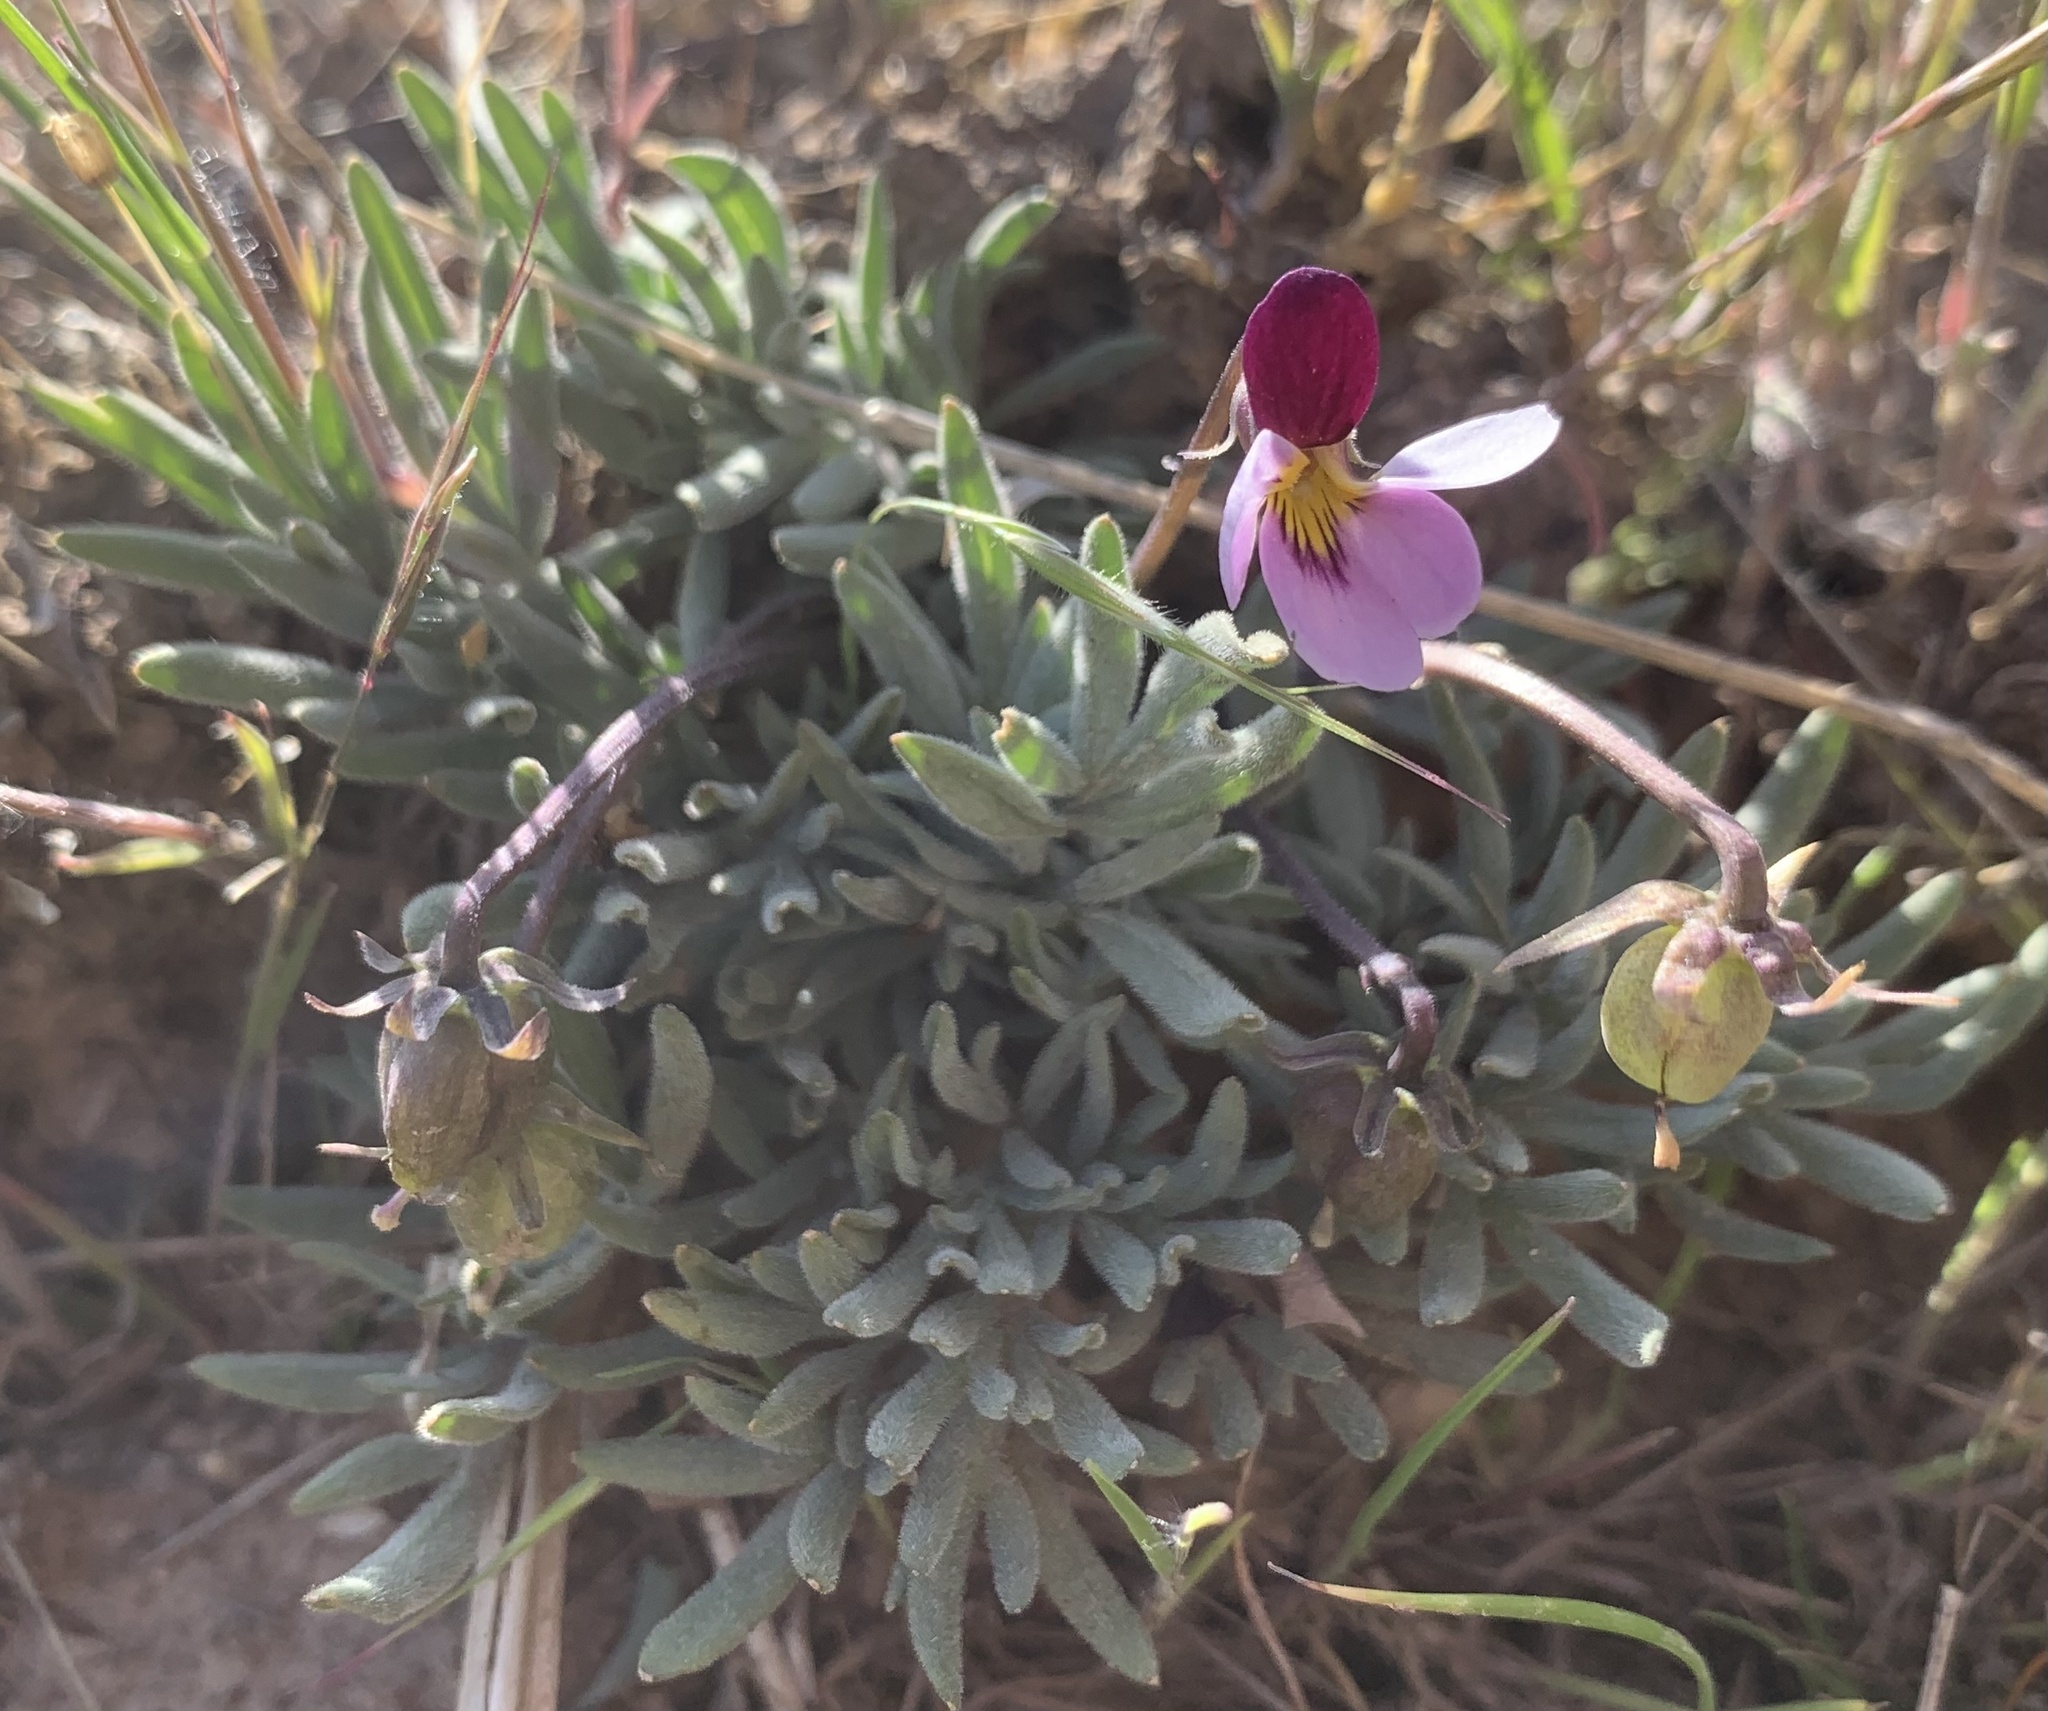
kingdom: Plantae
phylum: Tracheophyta
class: Magnoliopsida
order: Malpighiales
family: Violaceae
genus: Viola
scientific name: Viola beckwithii
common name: Beckwith's violet
